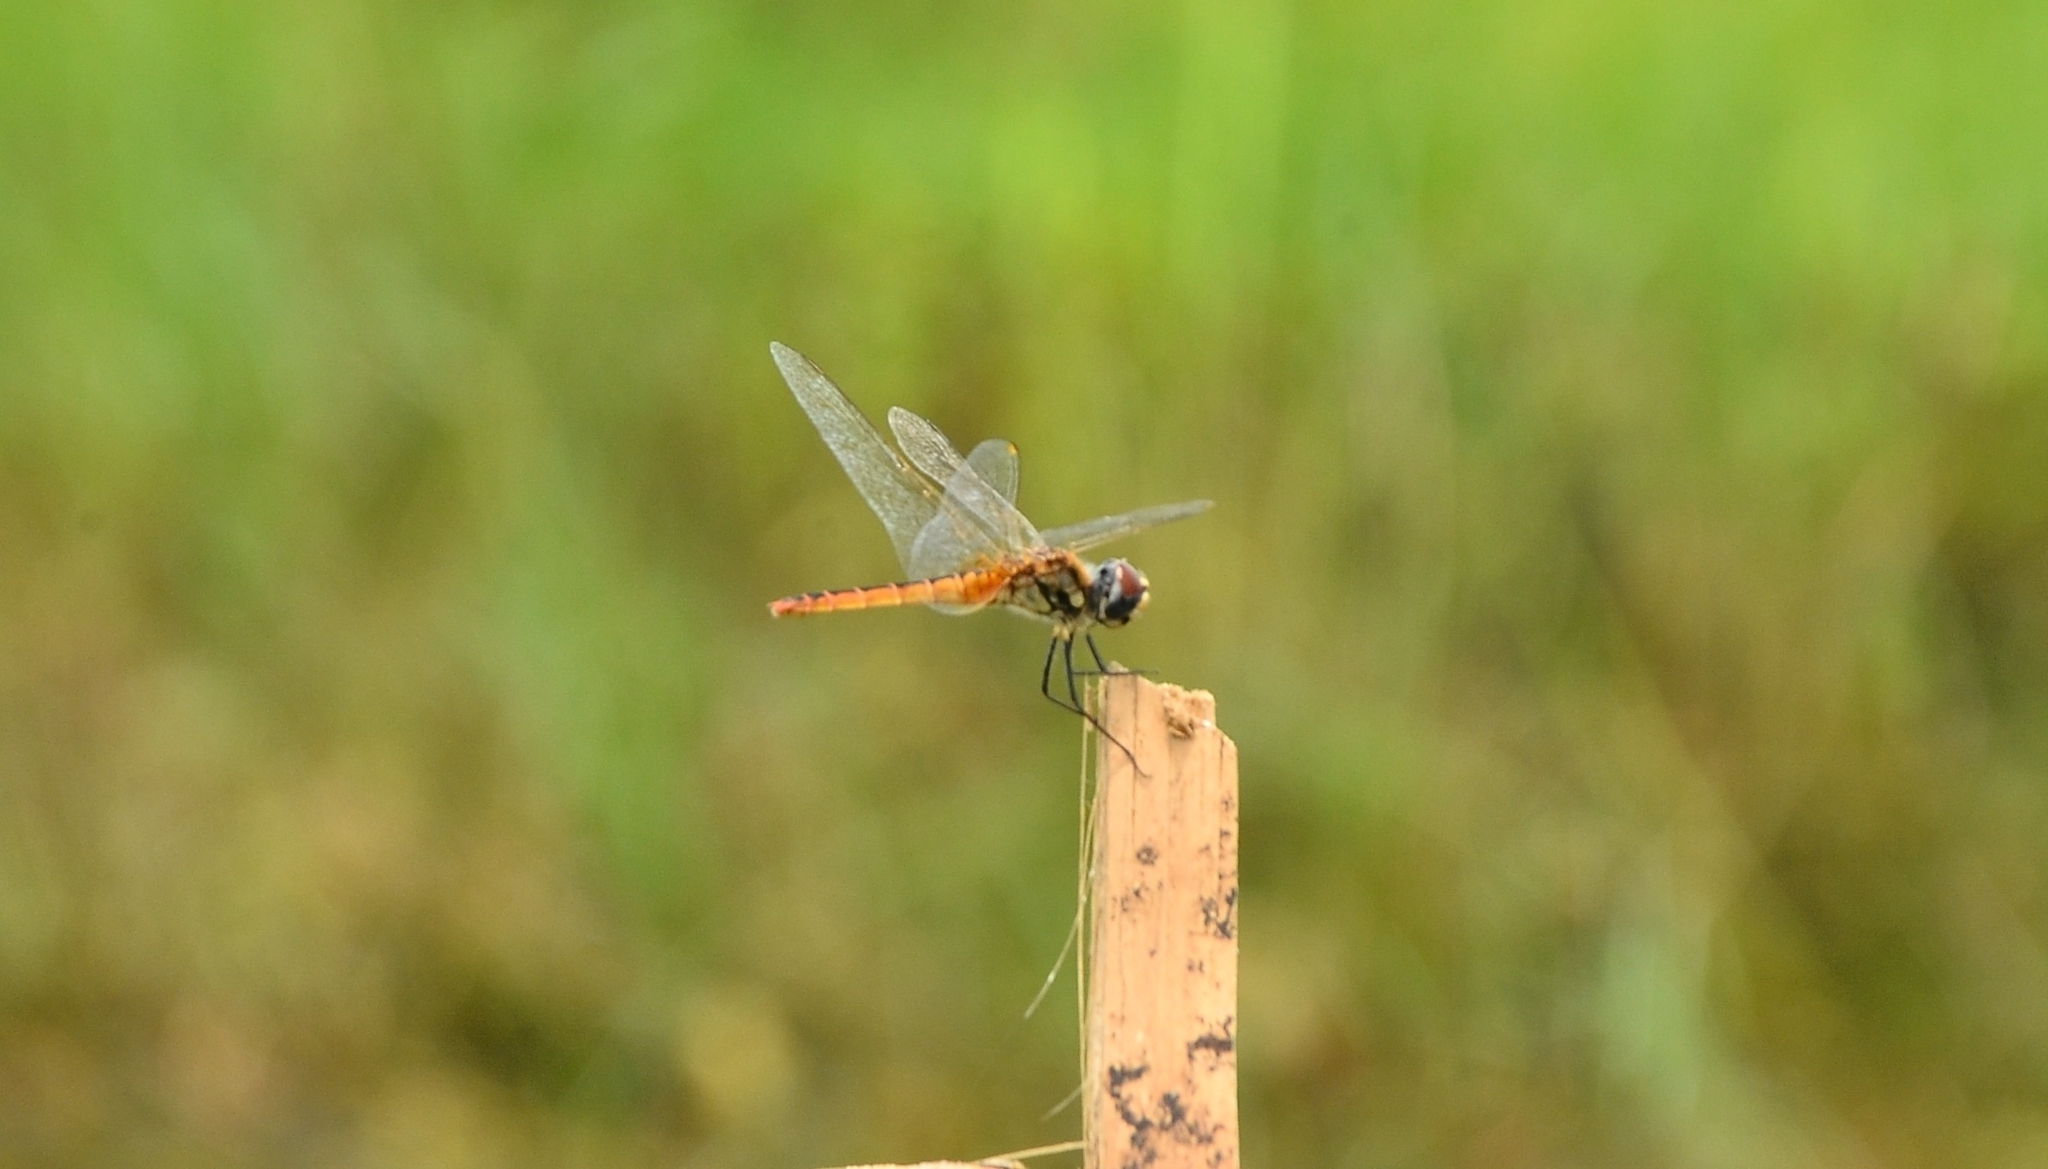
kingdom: Animalia
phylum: Arthropoda
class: Insecta
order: Odonata
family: Libellulidae
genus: Macrodiplax
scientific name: Macrodiplax cora
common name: Coastal glider
